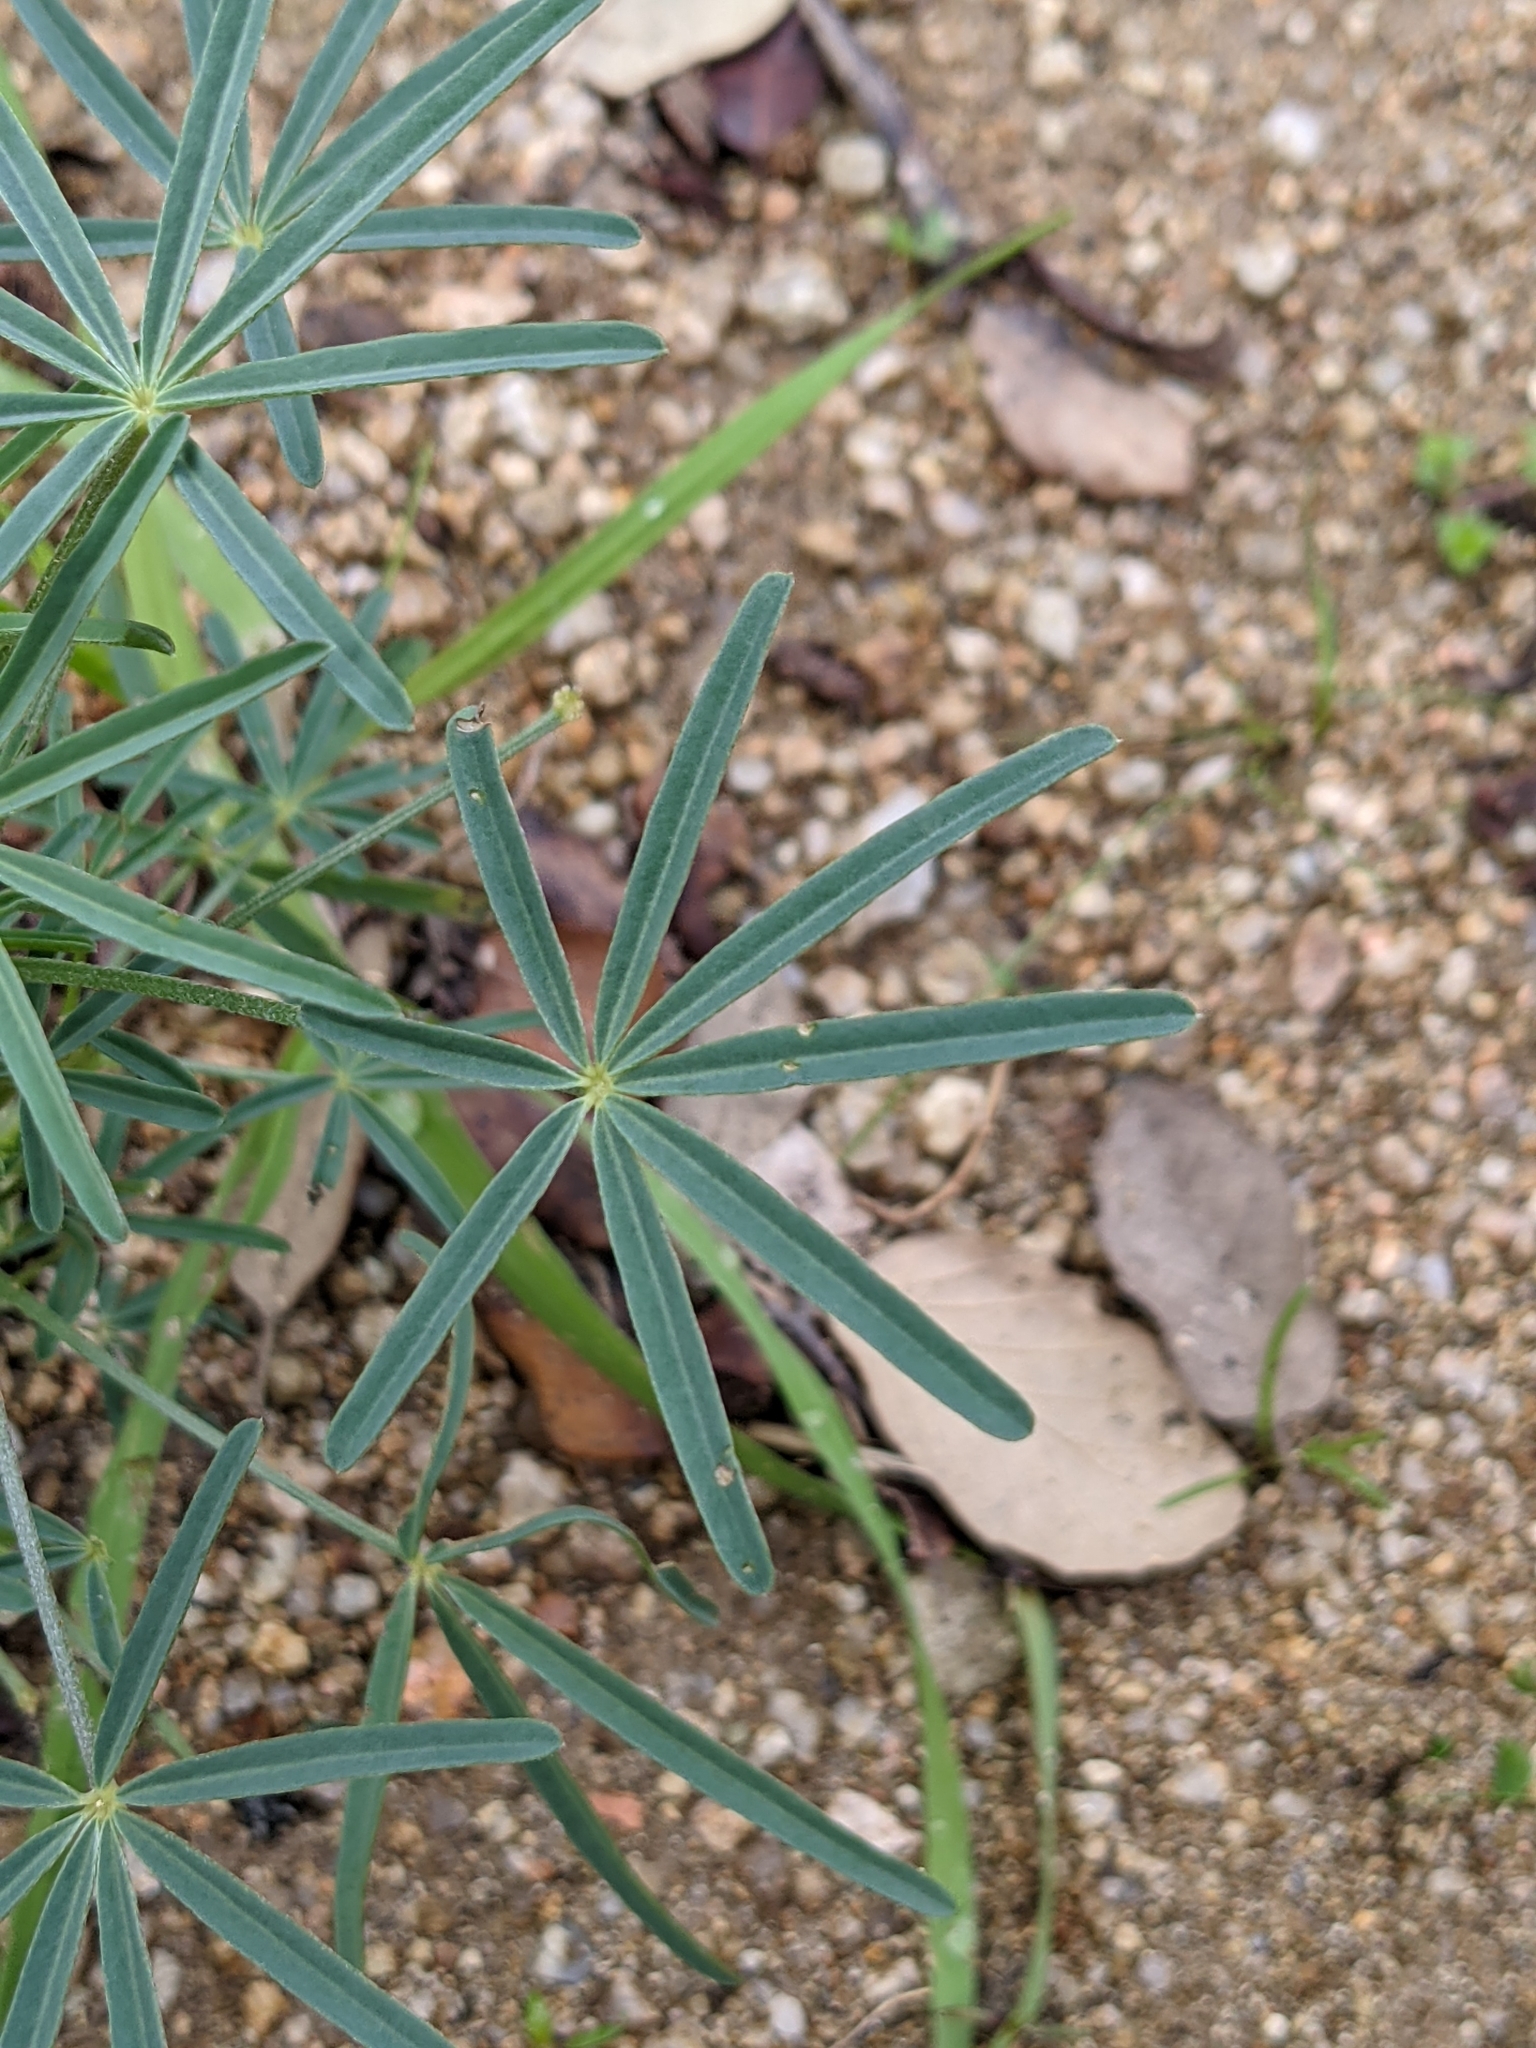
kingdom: Plantae
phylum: Tracheophyta
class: Magnoliopsida
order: Fabales
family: Fabaceae
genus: Lupinus
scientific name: Lupinus angustifolius
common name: Narrow-leaved lupin
